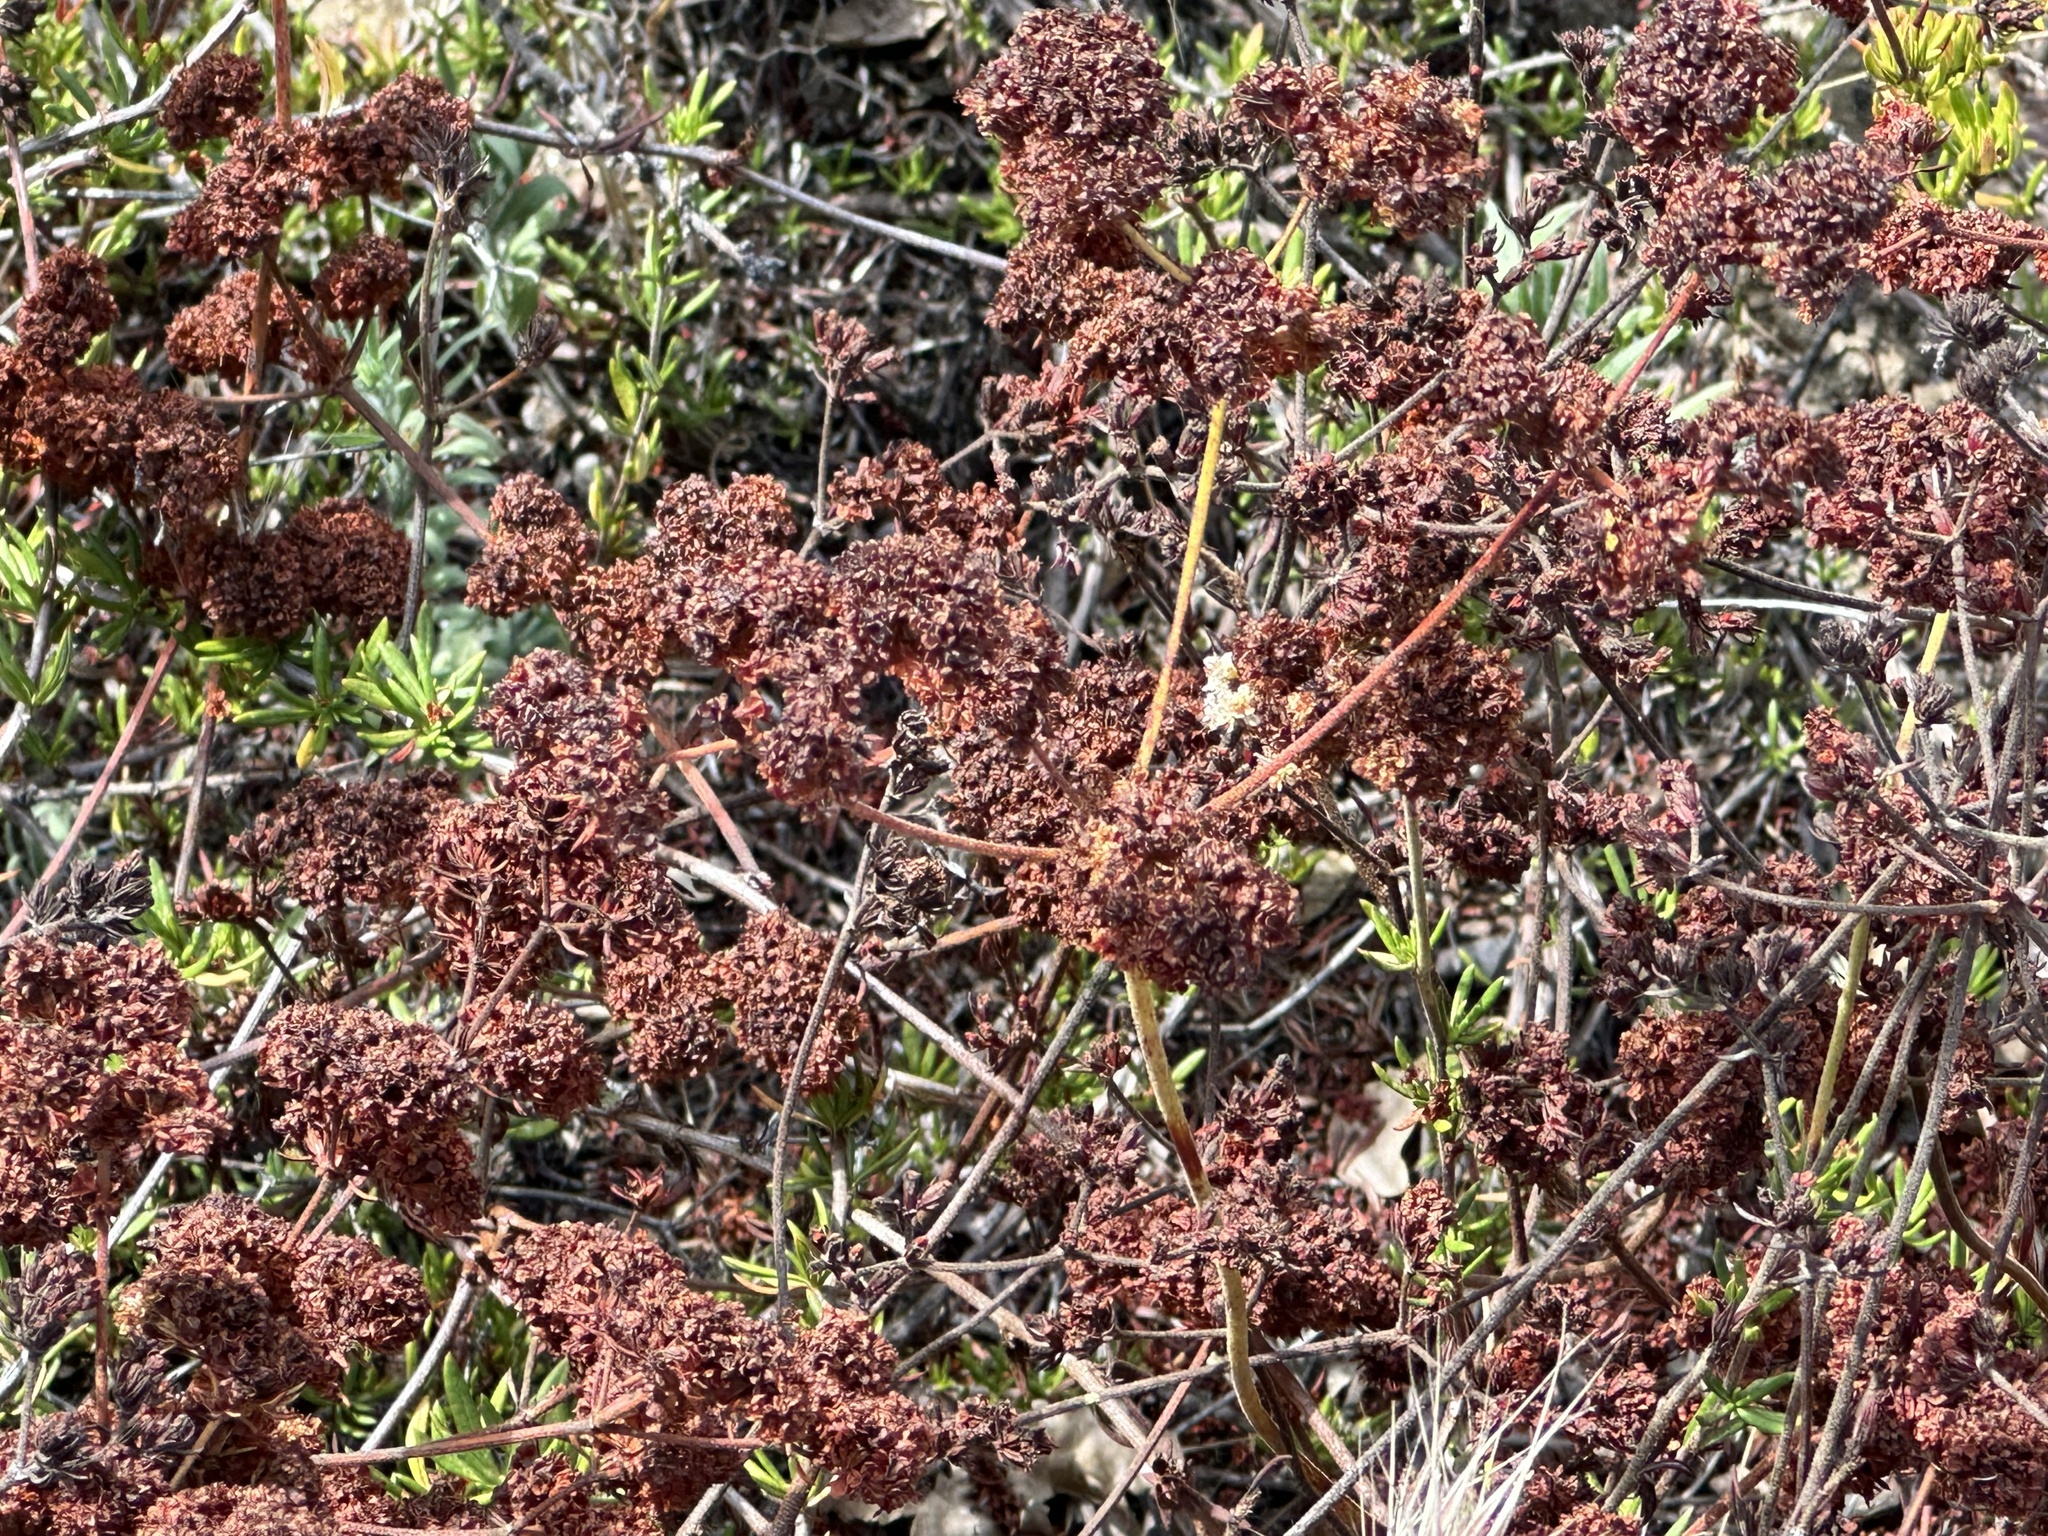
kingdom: Plantae
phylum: Tracheophyta
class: Magnoliopsida
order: Caryophyllales
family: Polygonaceae
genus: Eriogonum
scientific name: Eriogonum fasciculatum
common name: California wild buckwheat
